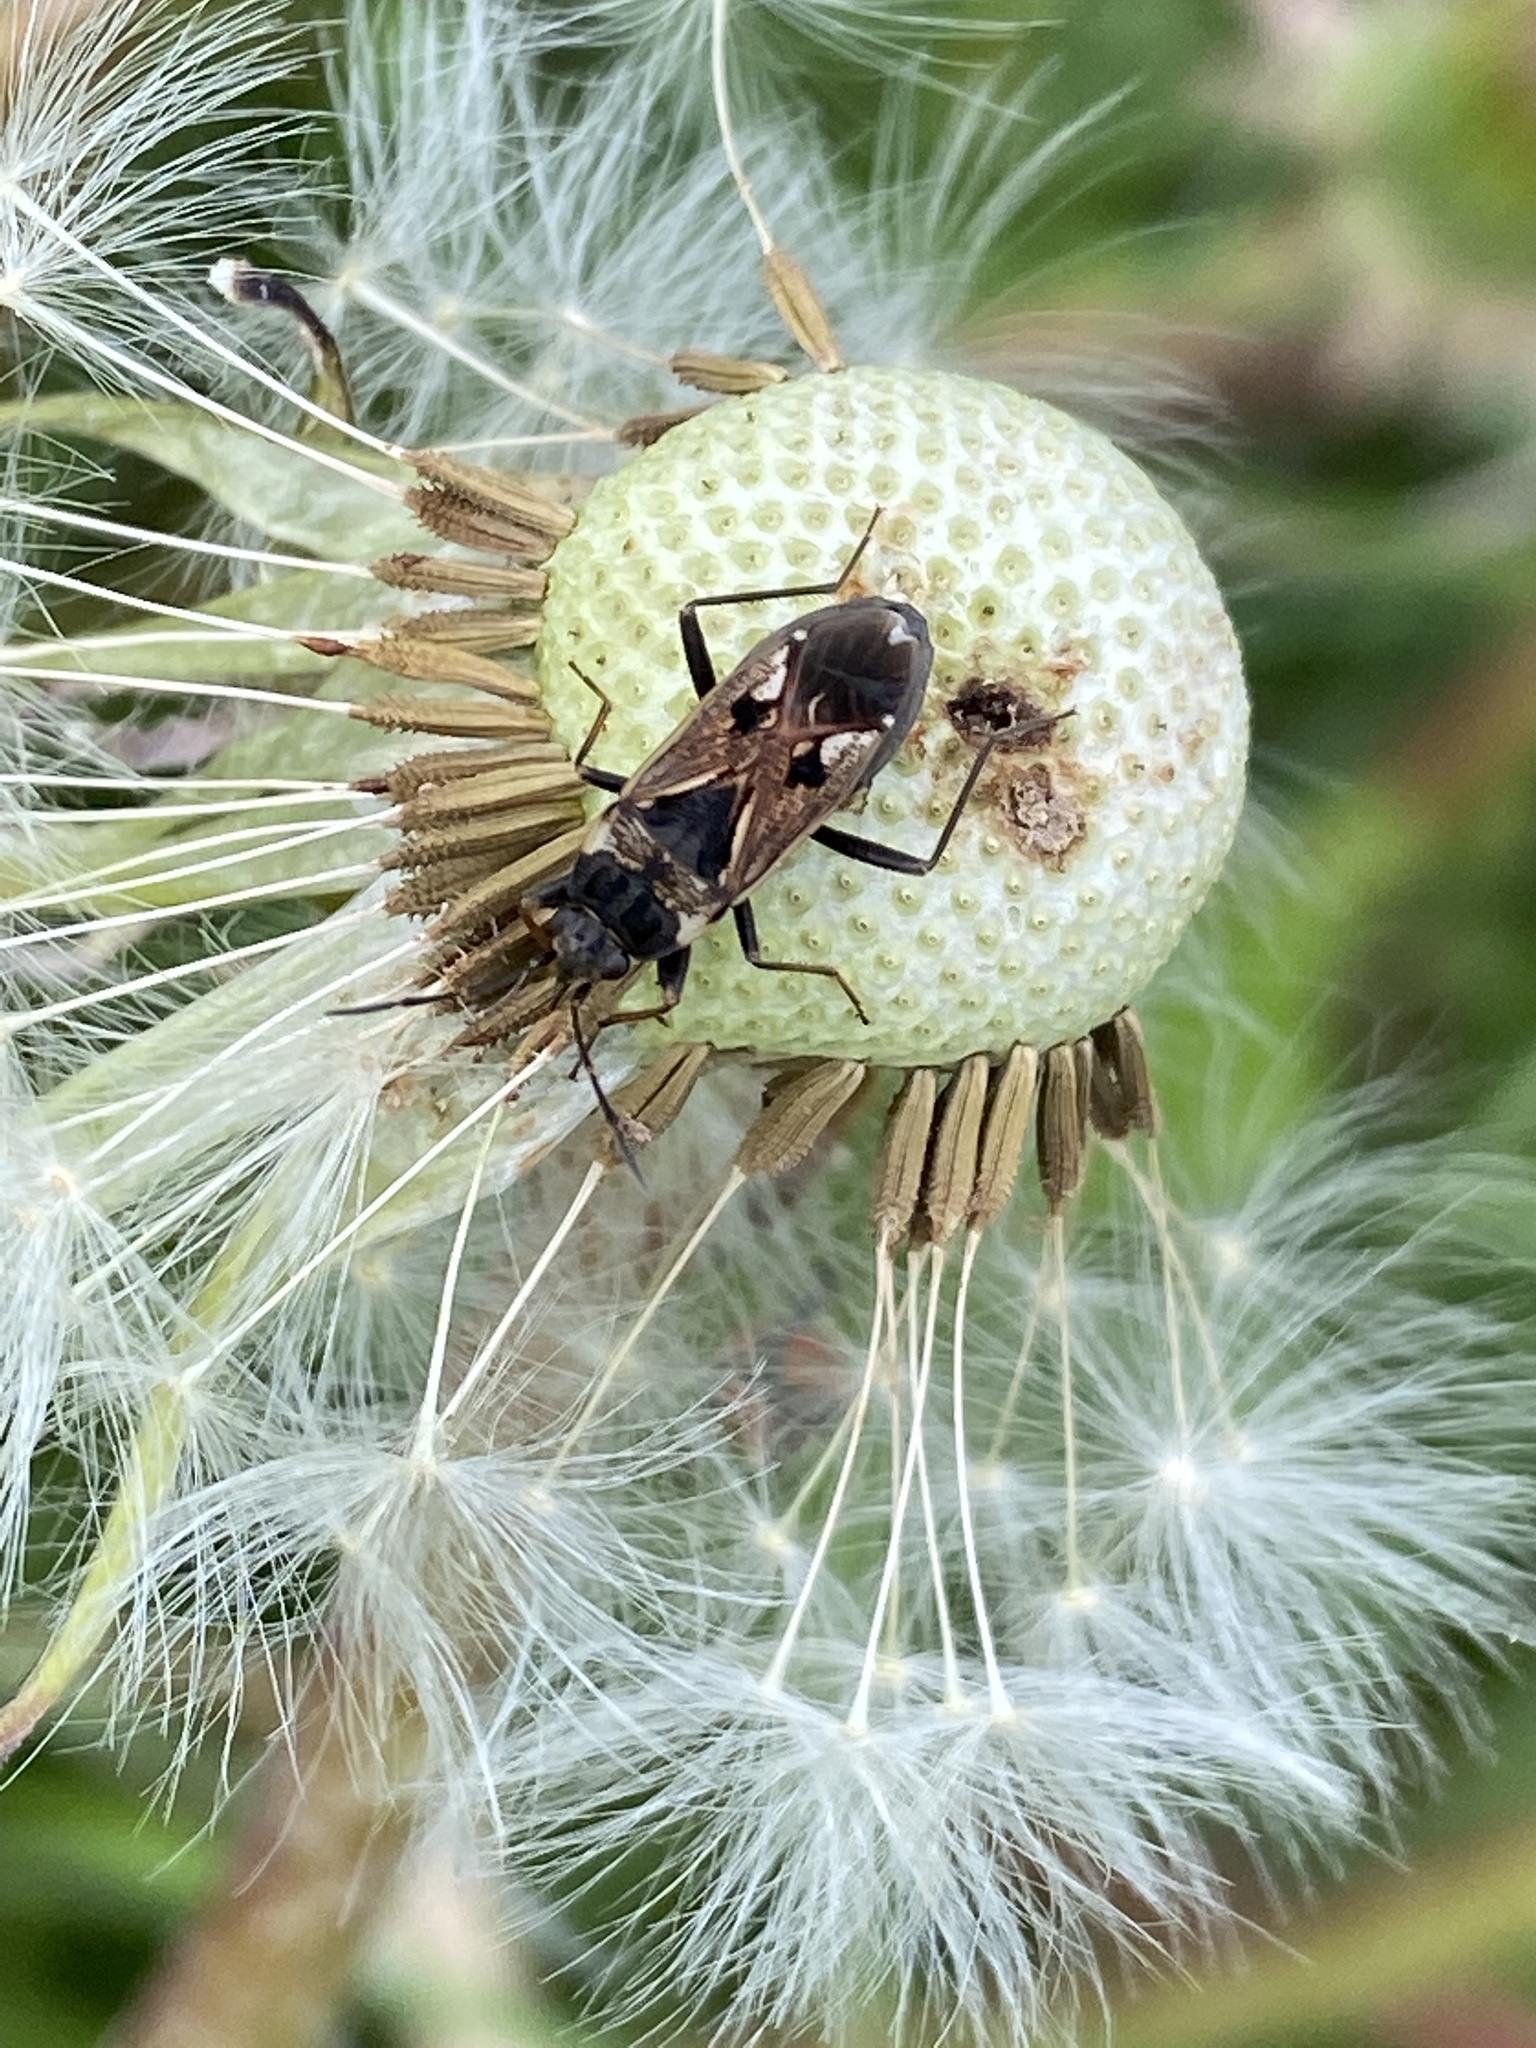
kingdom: Animalia
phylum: Arthropoda
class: Insecta
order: Hemiptera
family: Rhyparochromidae
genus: Rhyparochromus
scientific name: Rhyparochromus vulgaris
